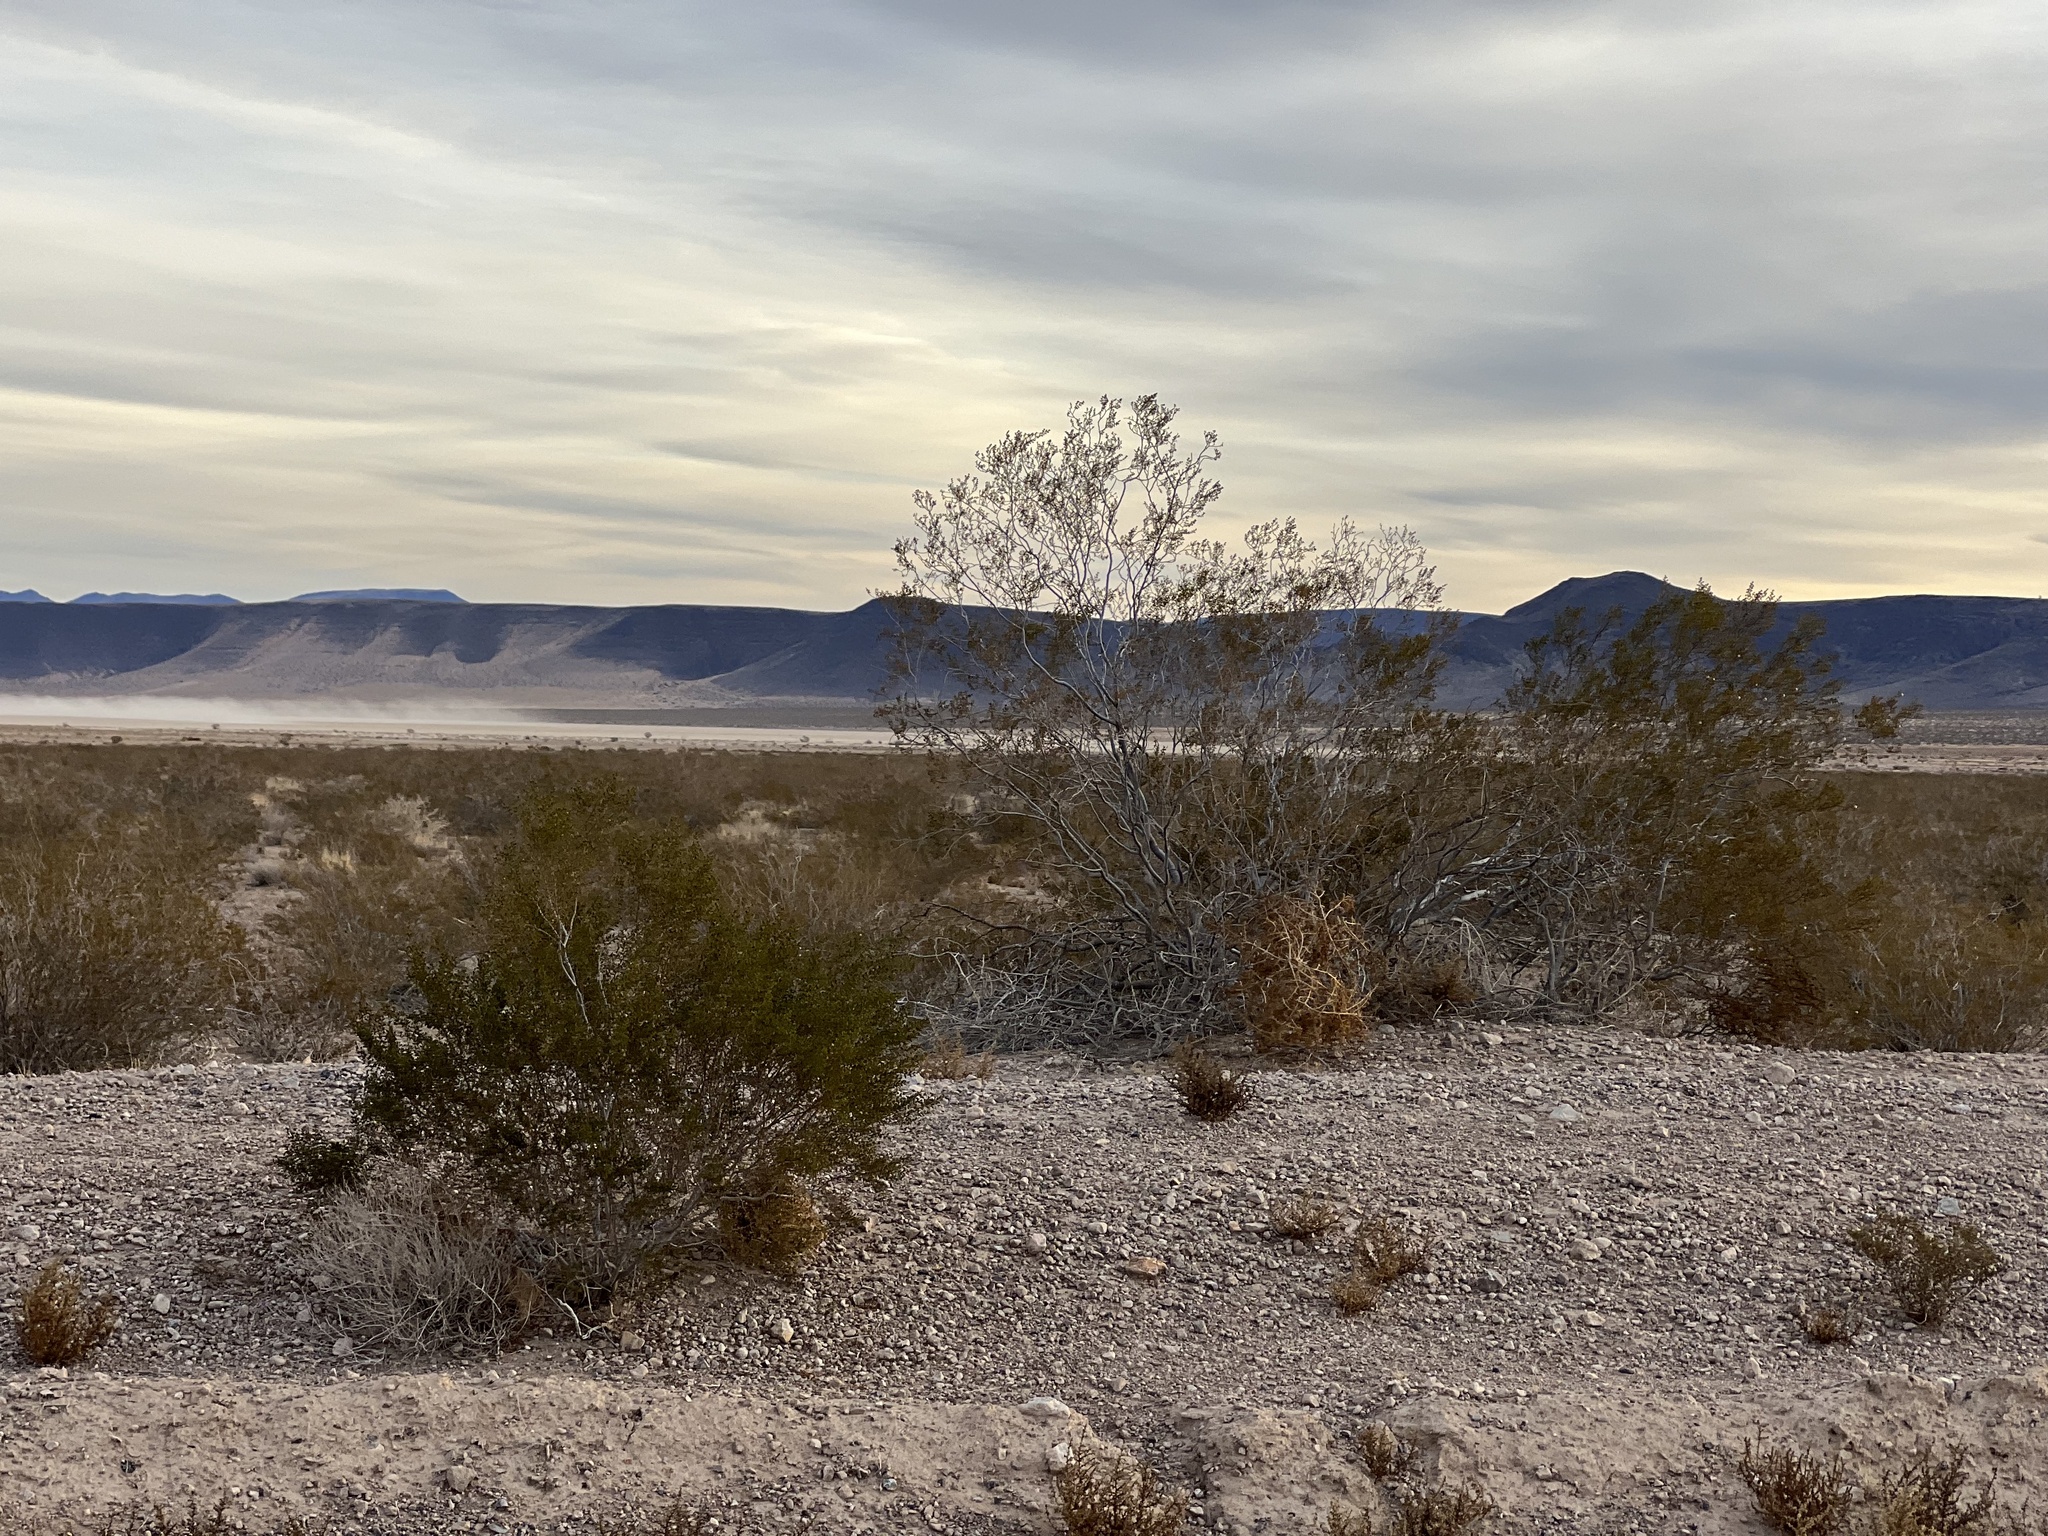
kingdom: Plantae
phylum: Tracheophyta
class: Magnoliopsida
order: Zygophyllales
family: Zygophyllaceae
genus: Larrea
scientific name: Larrea tridentata
